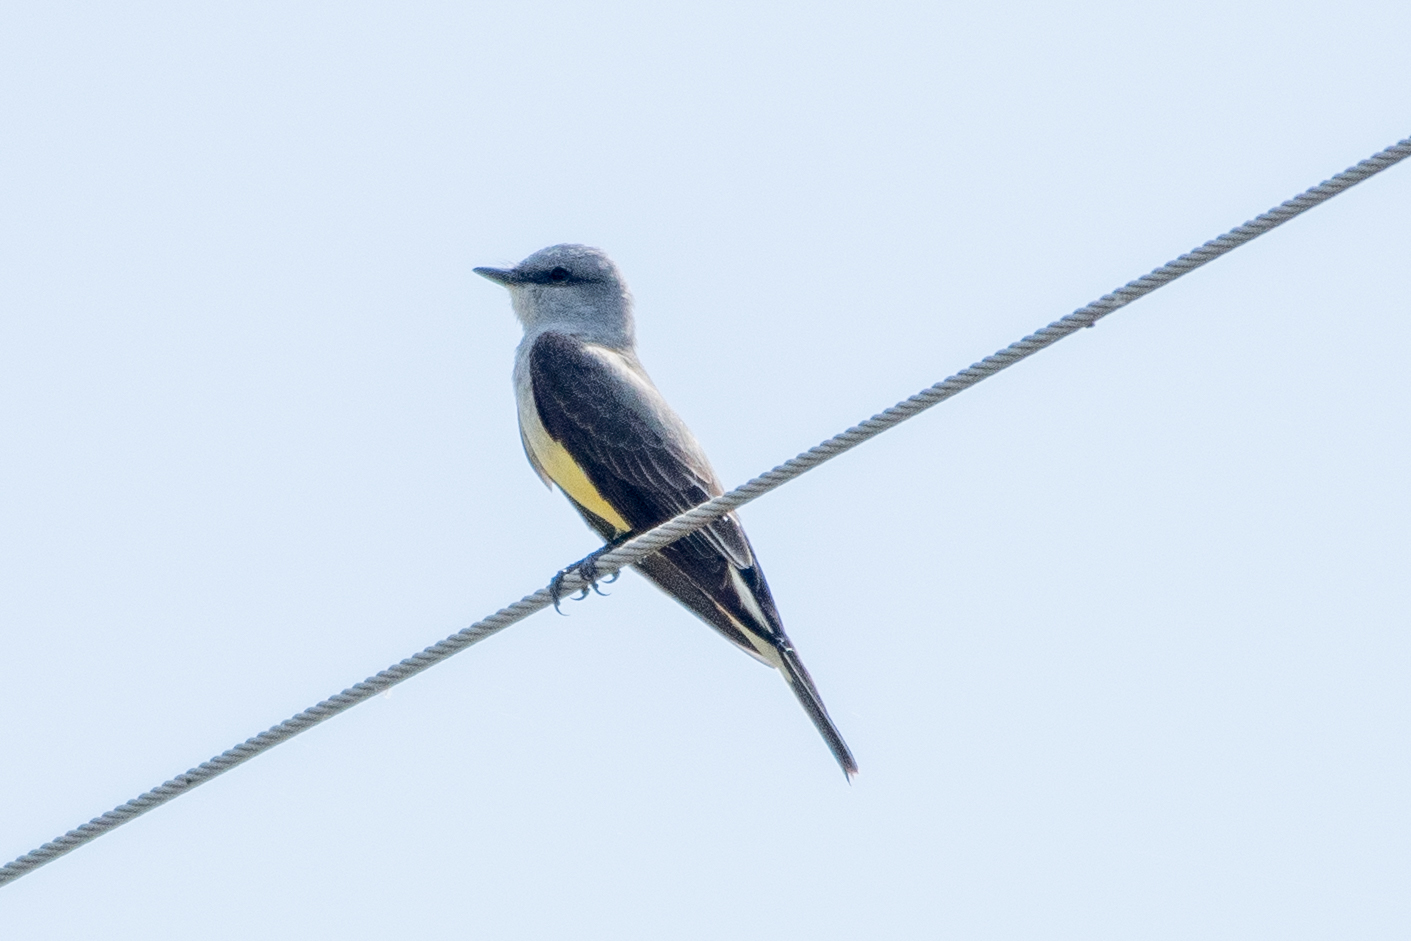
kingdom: Animalia
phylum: Chordata
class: Aves
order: Passeriformes
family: Tyrannidae
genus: Tyrannus
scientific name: Tyrannus verticalis
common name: Western kingbird
